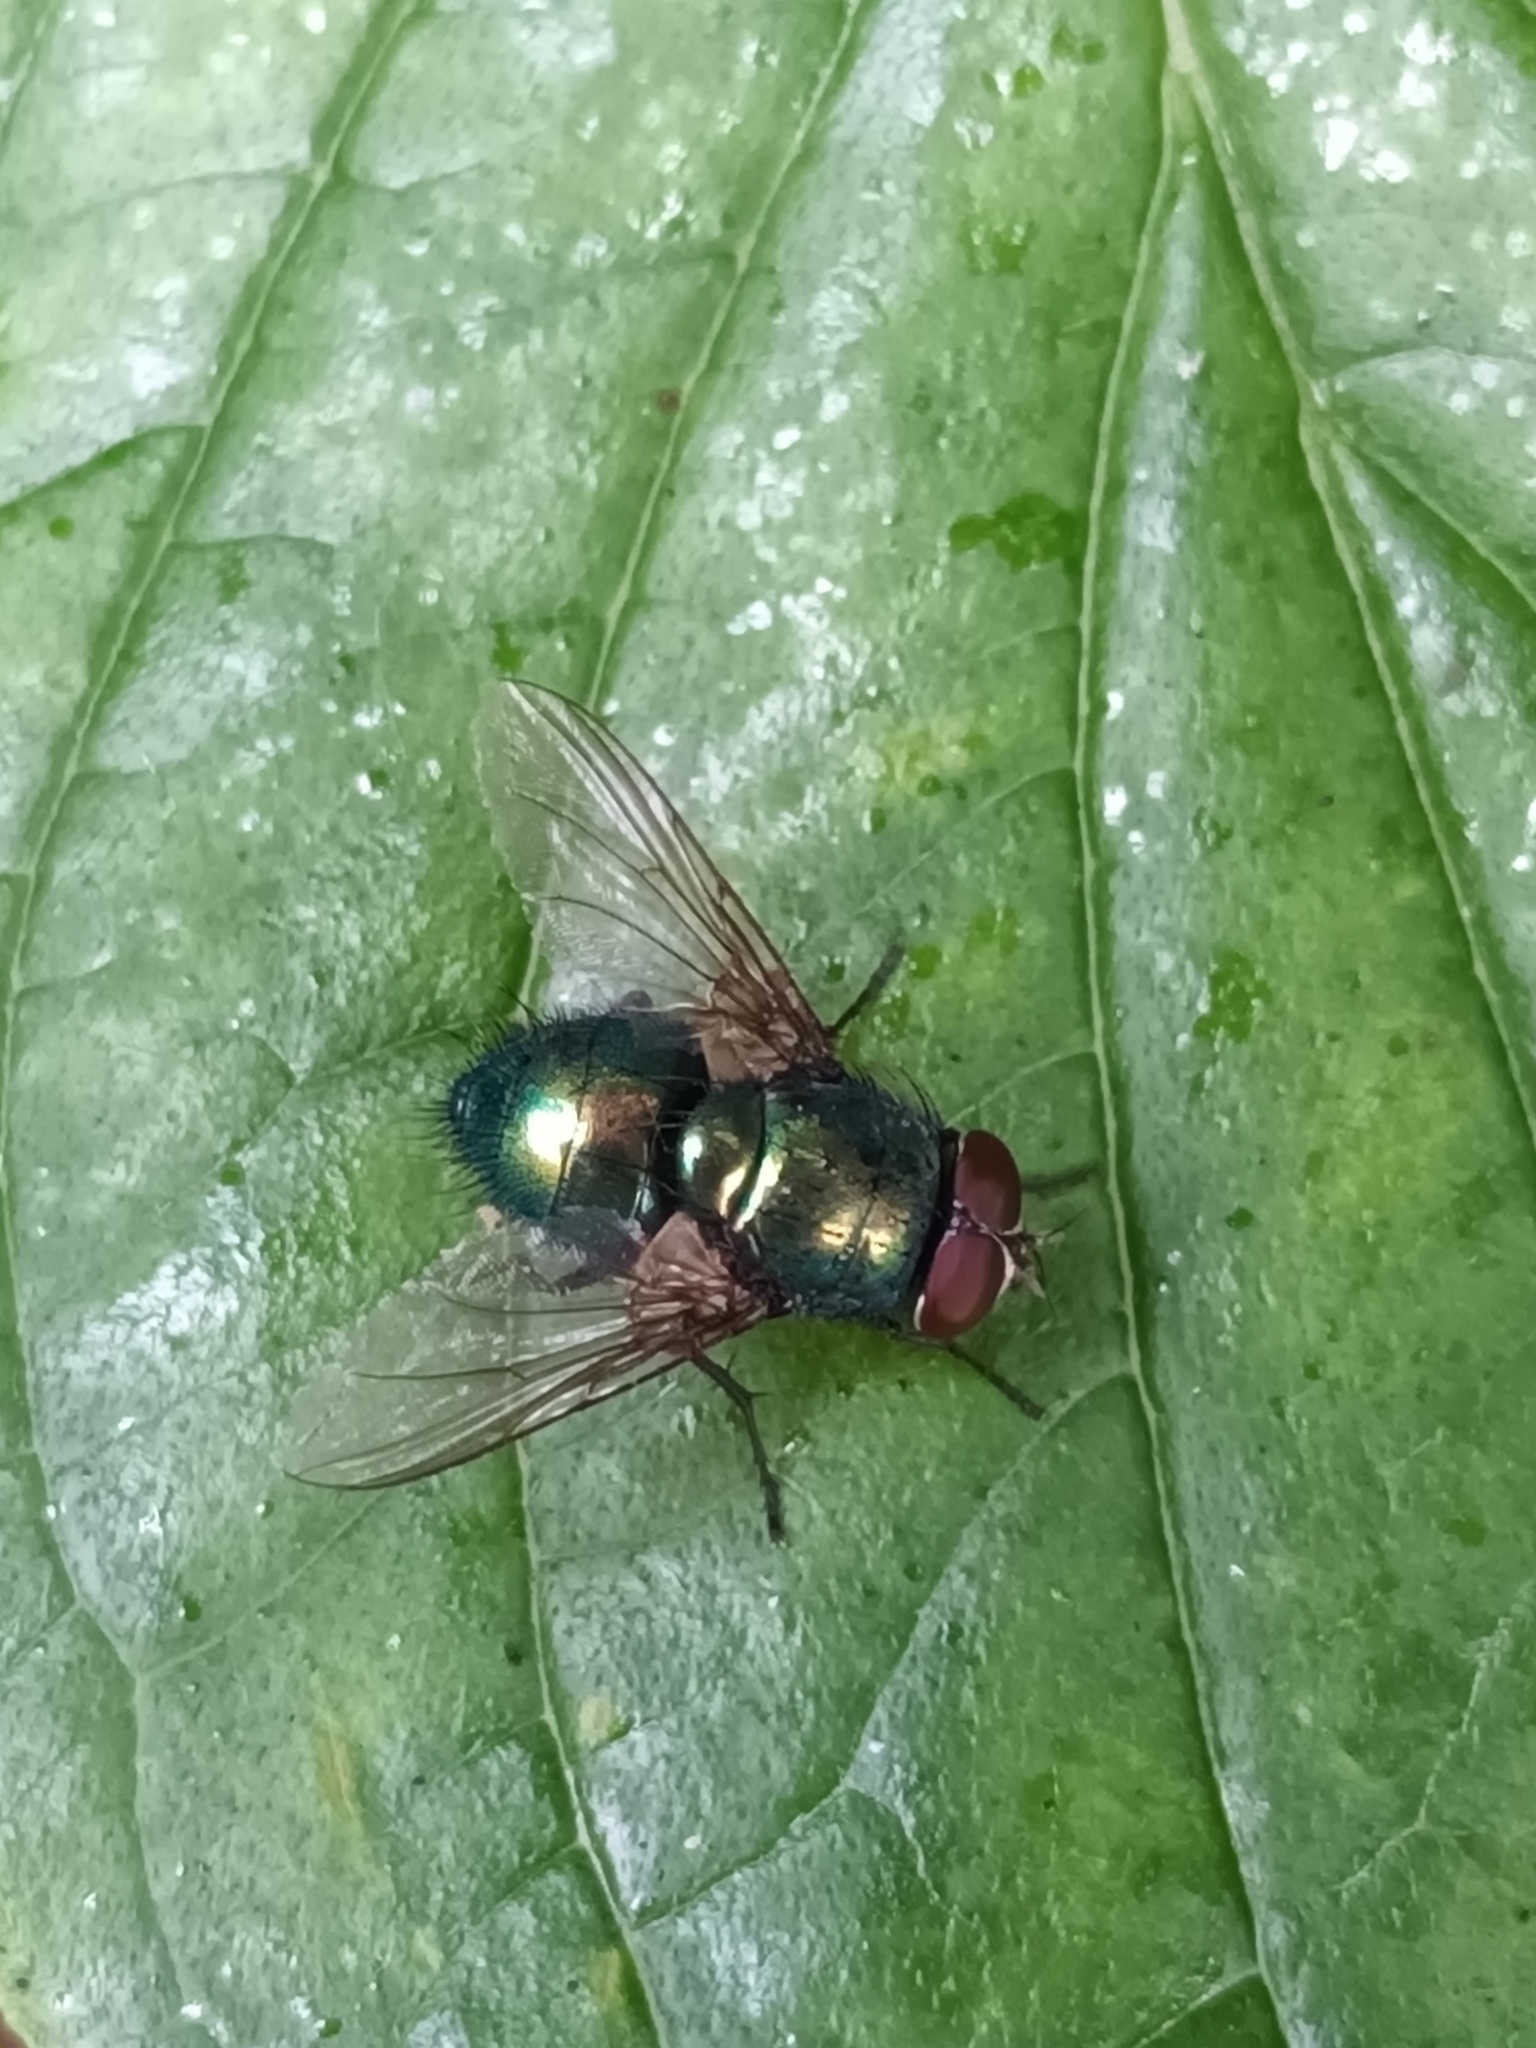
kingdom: Animalia
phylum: Arthropoda
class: Insecta
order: Diptera
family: Calliphoridae
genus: Lucilia
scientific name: Lucilia
